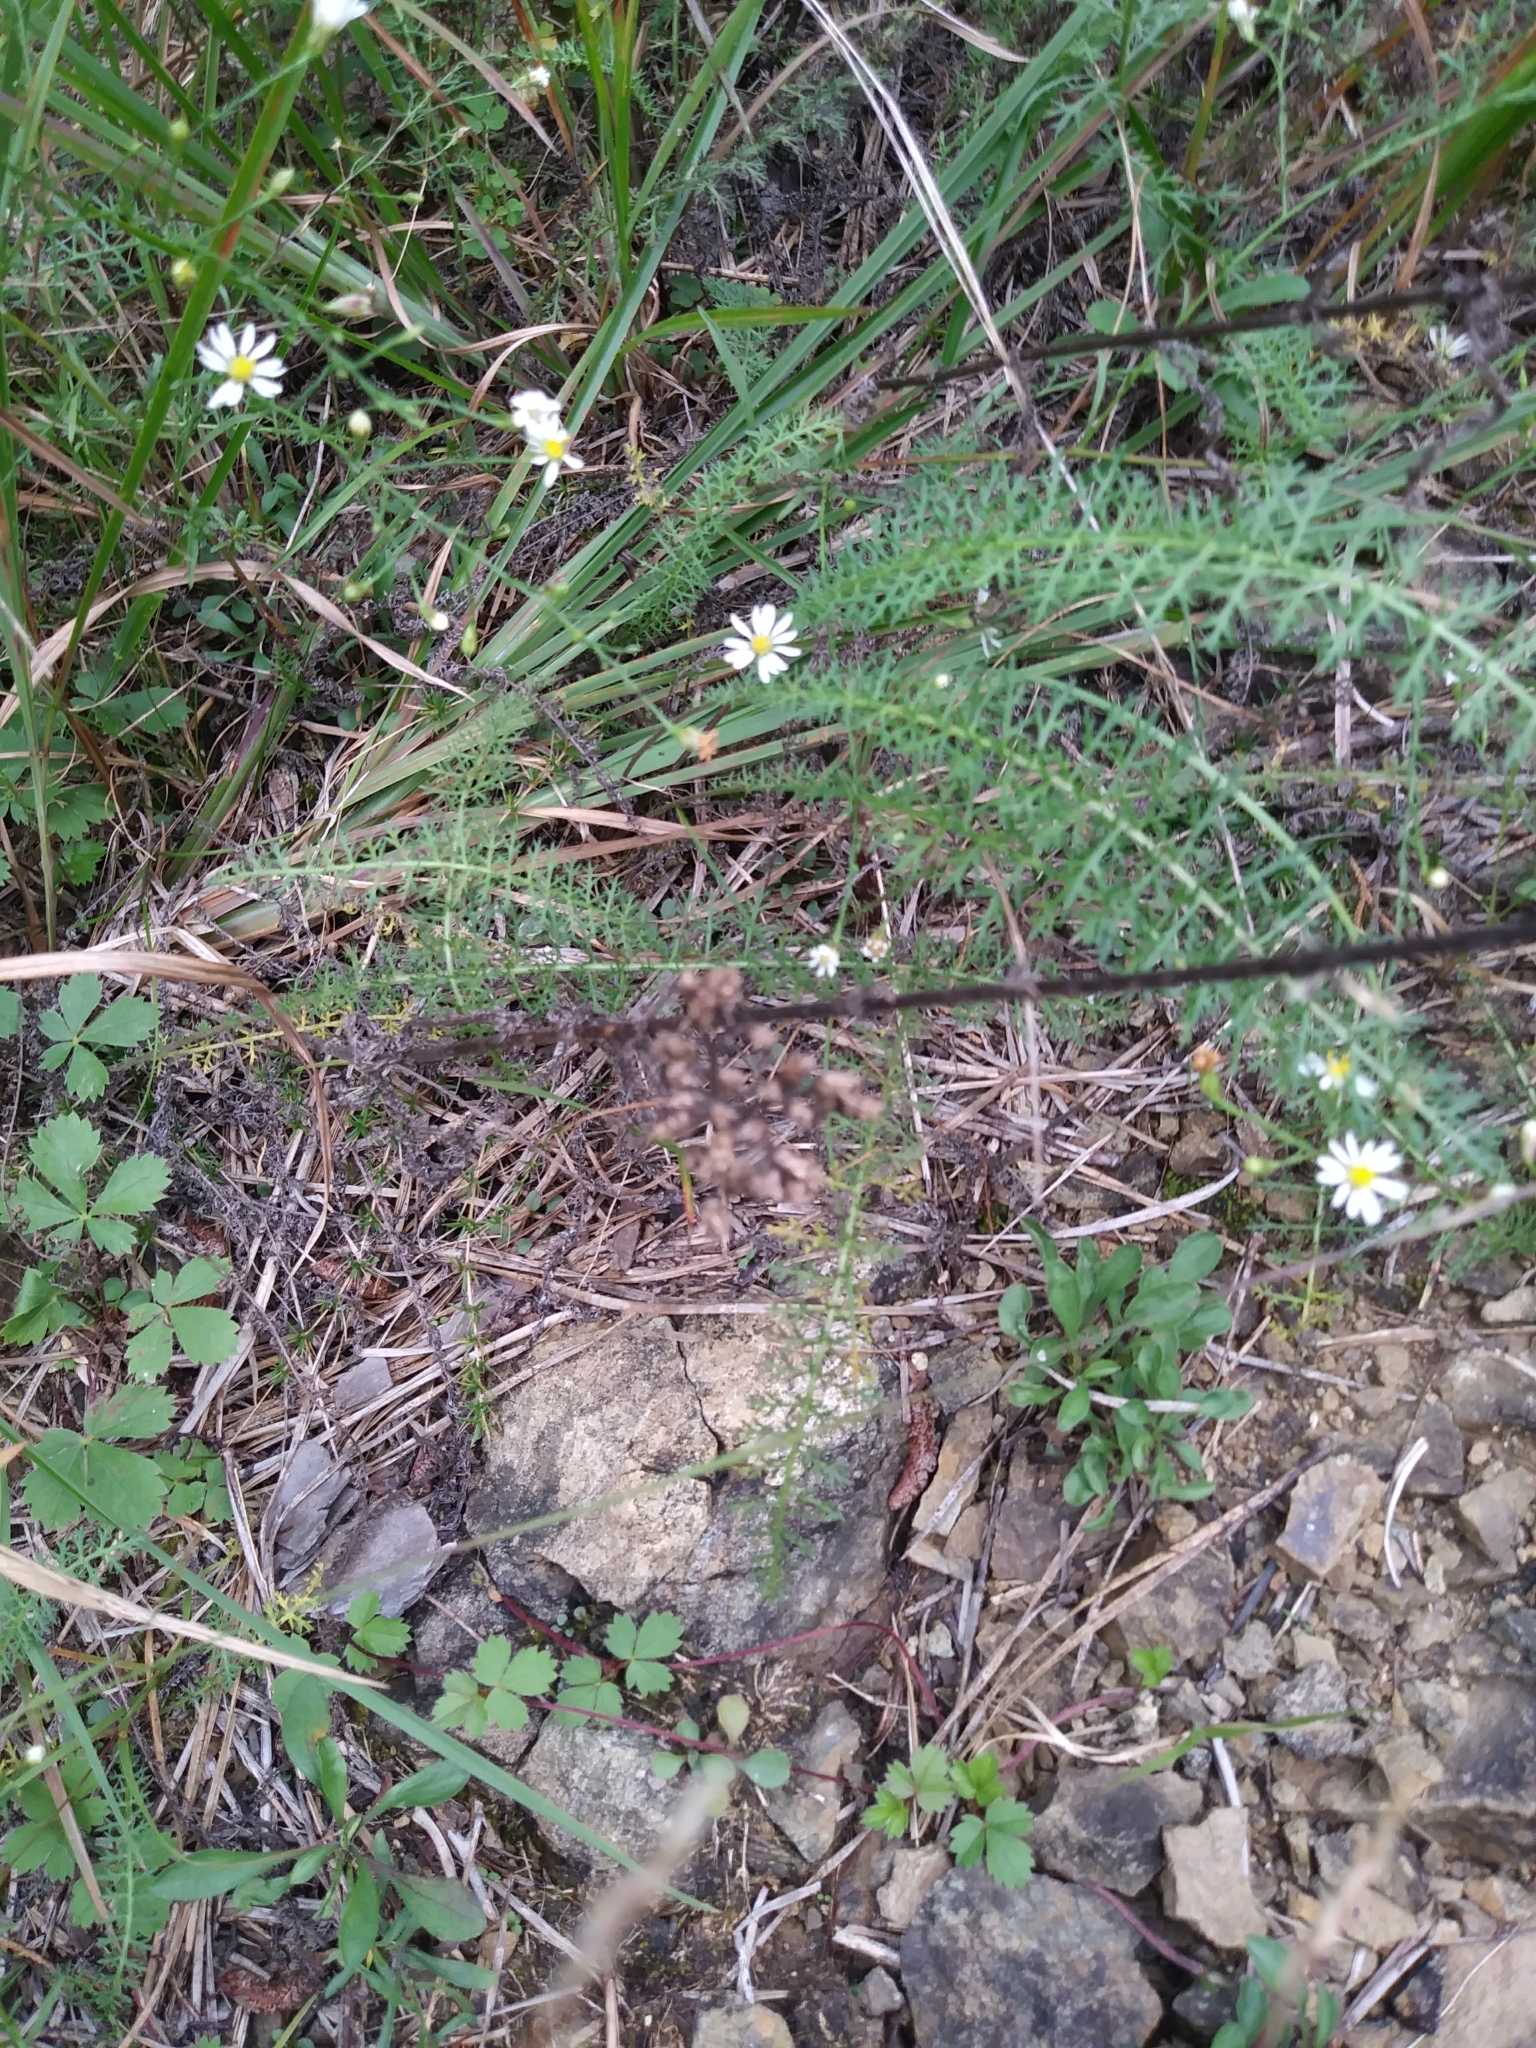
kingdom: Plantae
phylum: Tracheophyta
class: Magnoliopsida
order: Asterales
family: Asteraceae
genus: Achillea
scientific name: Achillea millefolium
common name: Yarrow
